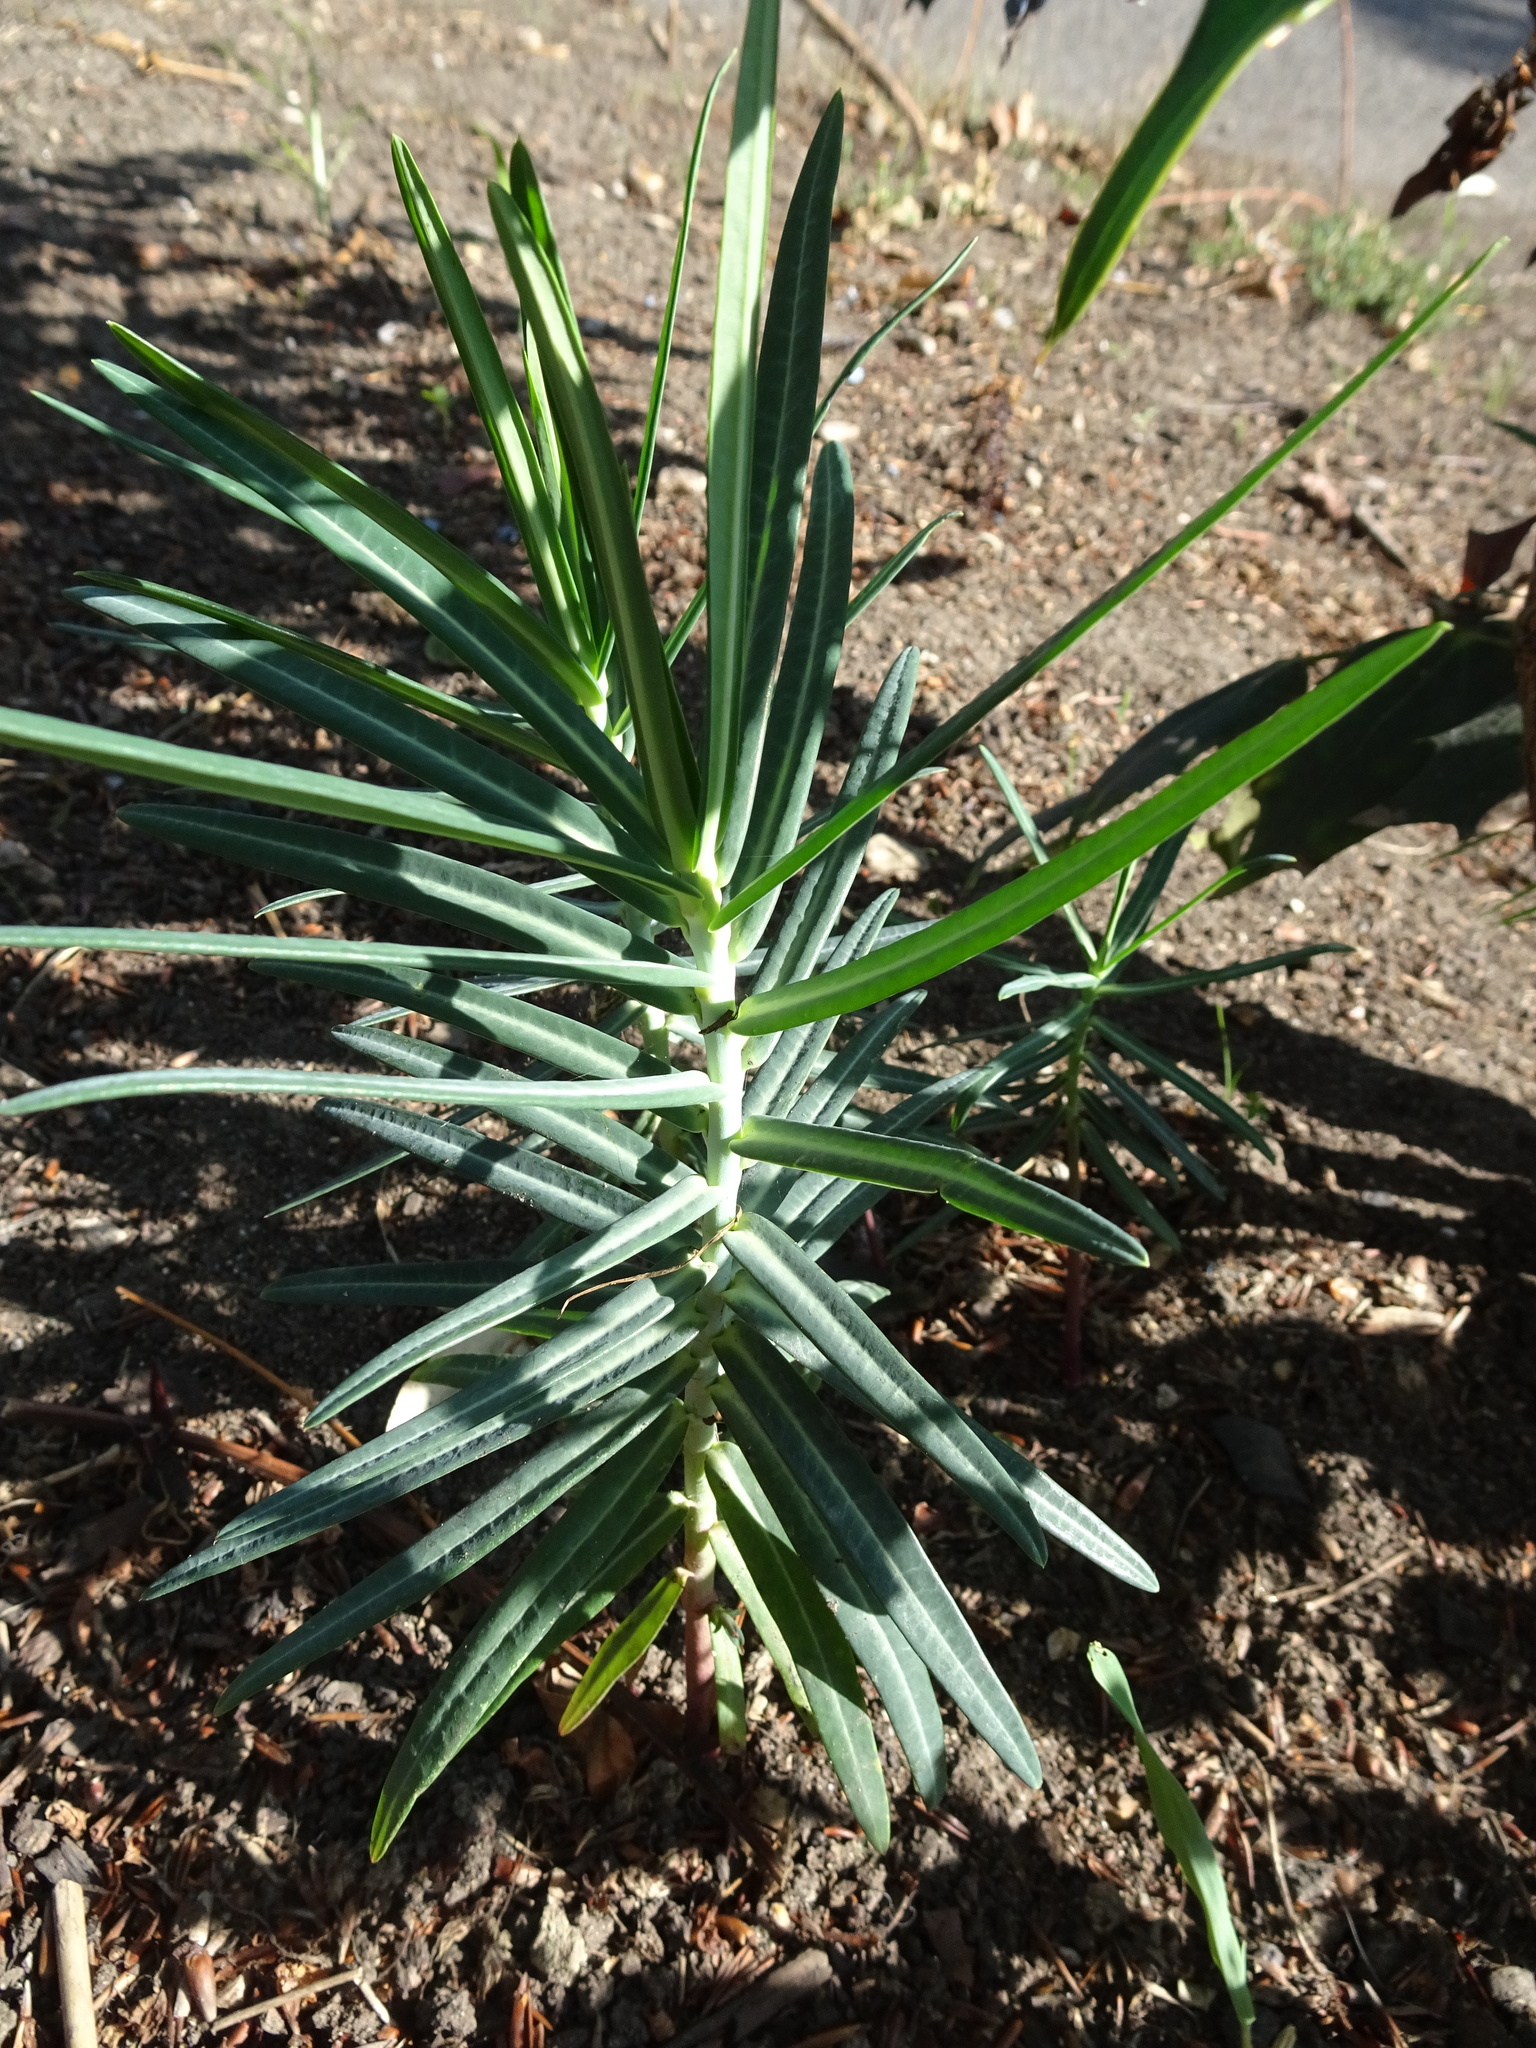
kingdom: Plantae
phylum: Tracheophyta
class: Magnoliopsida
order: Malpighiales
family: Euphorbiaceae
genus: Euphorbia
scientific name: Euphorbia lathyris
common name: Caper spurge
